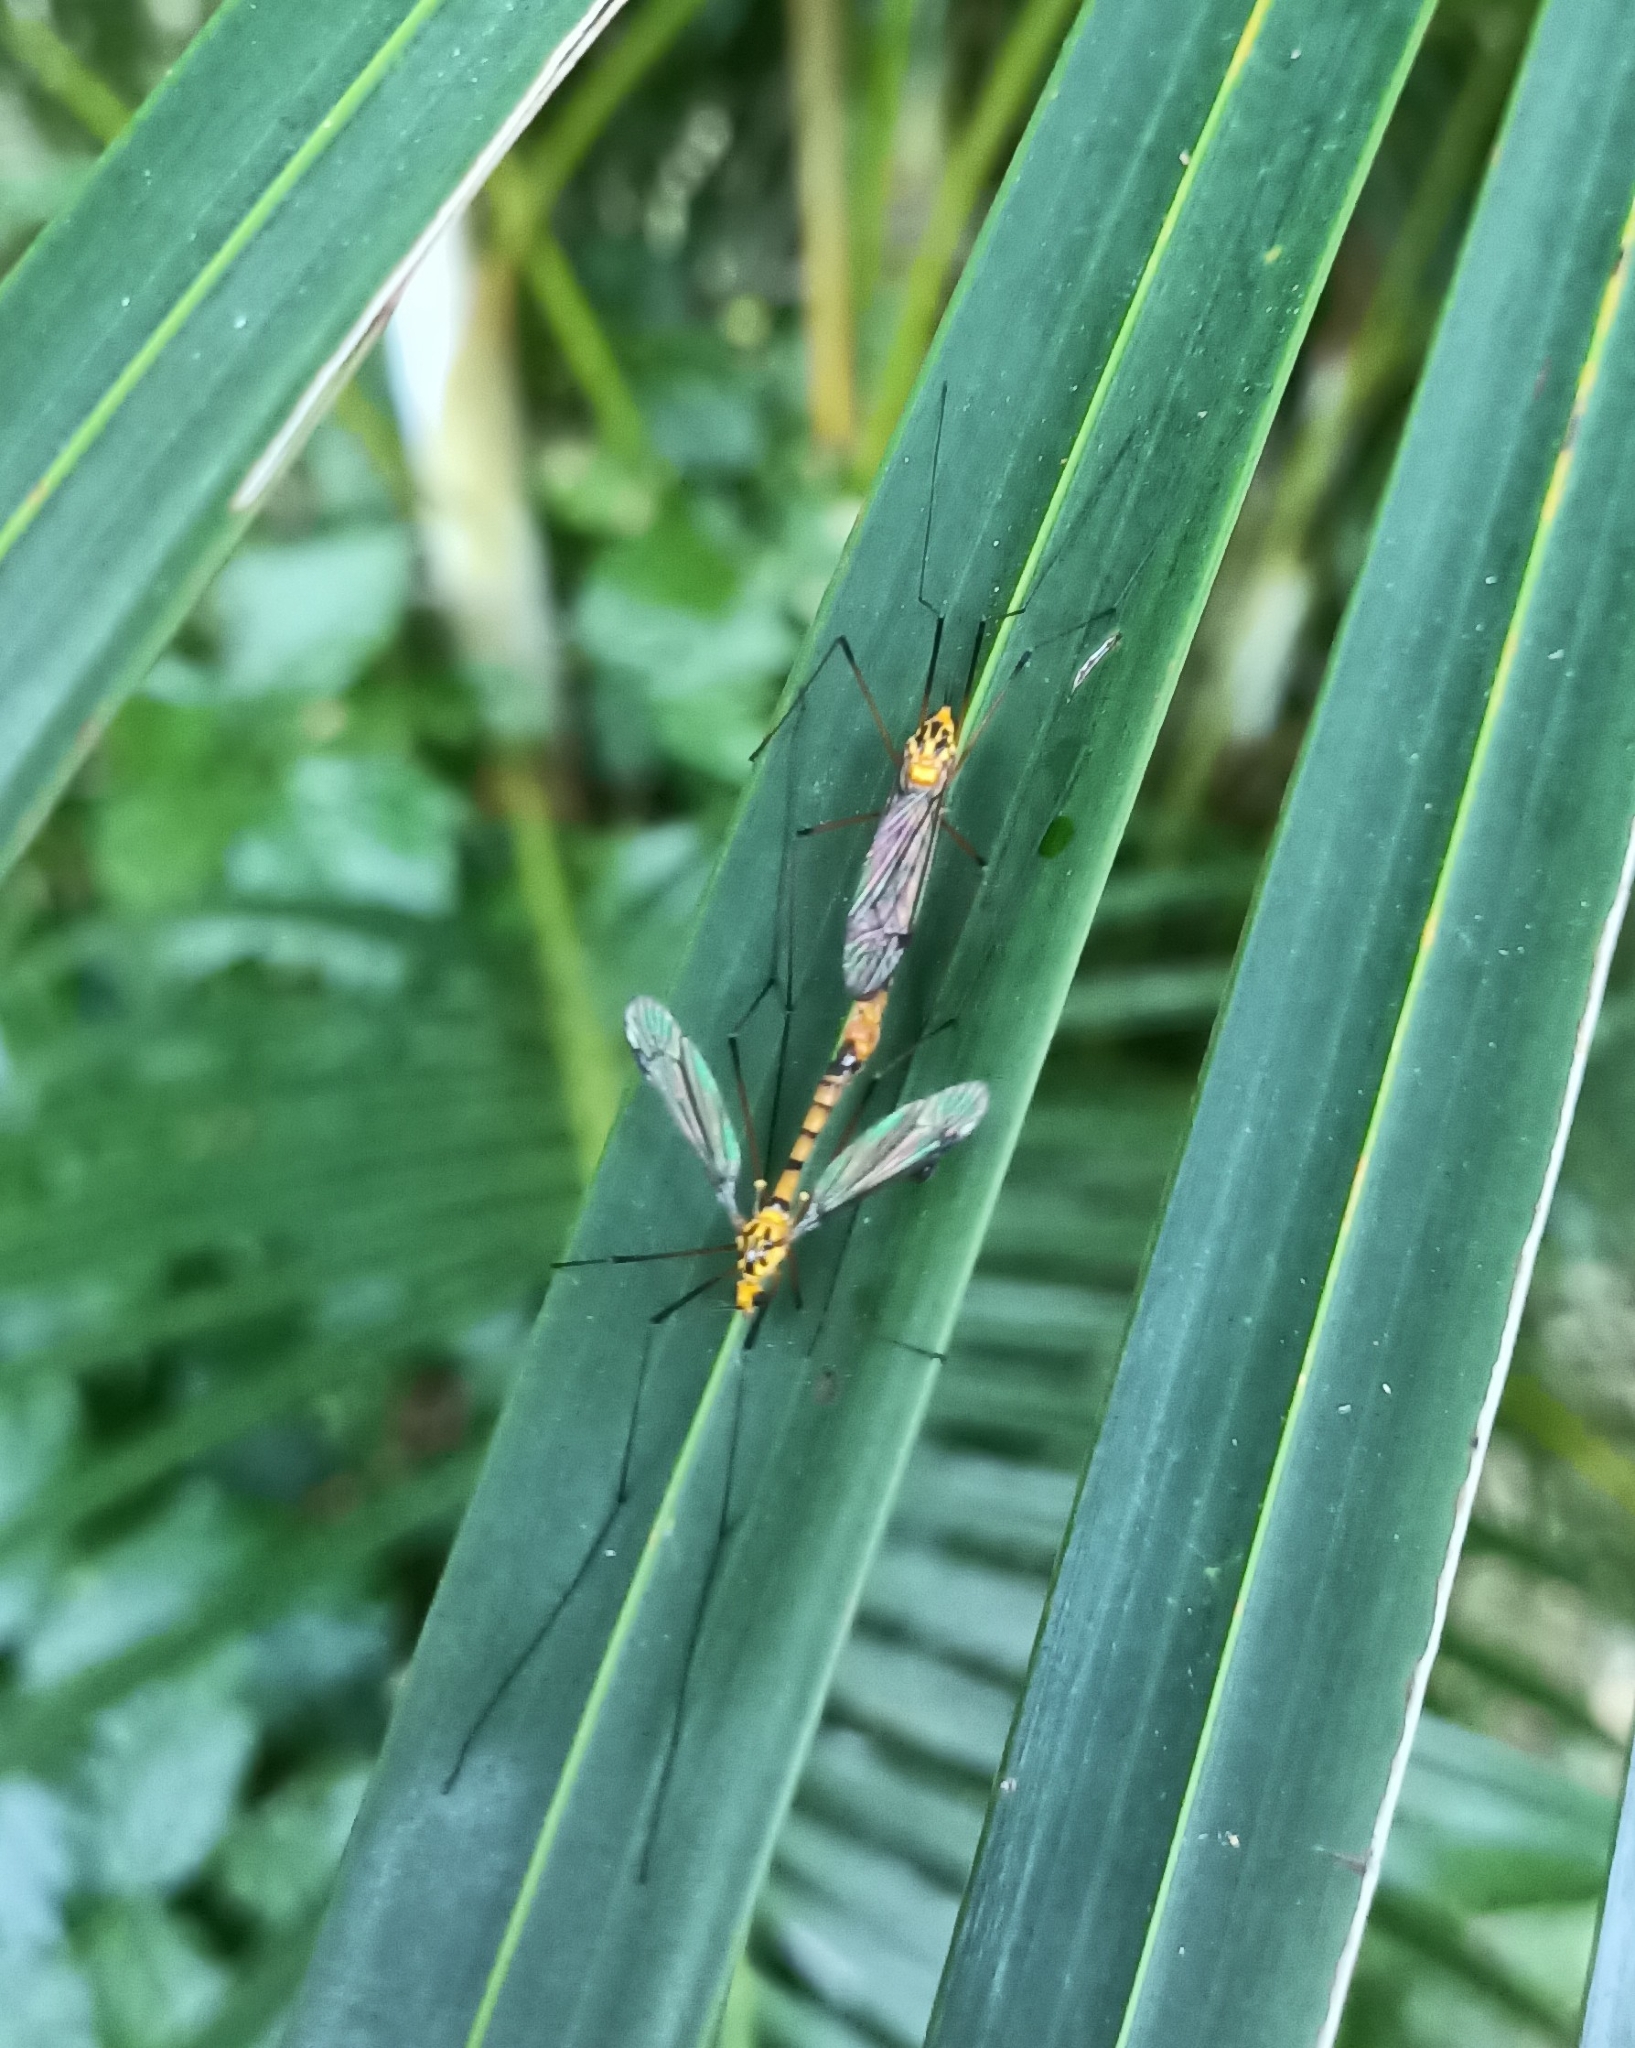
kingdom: Animalia
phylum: Arthropoda
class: Insecta
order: Diptera
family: Tipulidae
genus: Nephrotoma
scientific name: Nephrotoma australasiae
